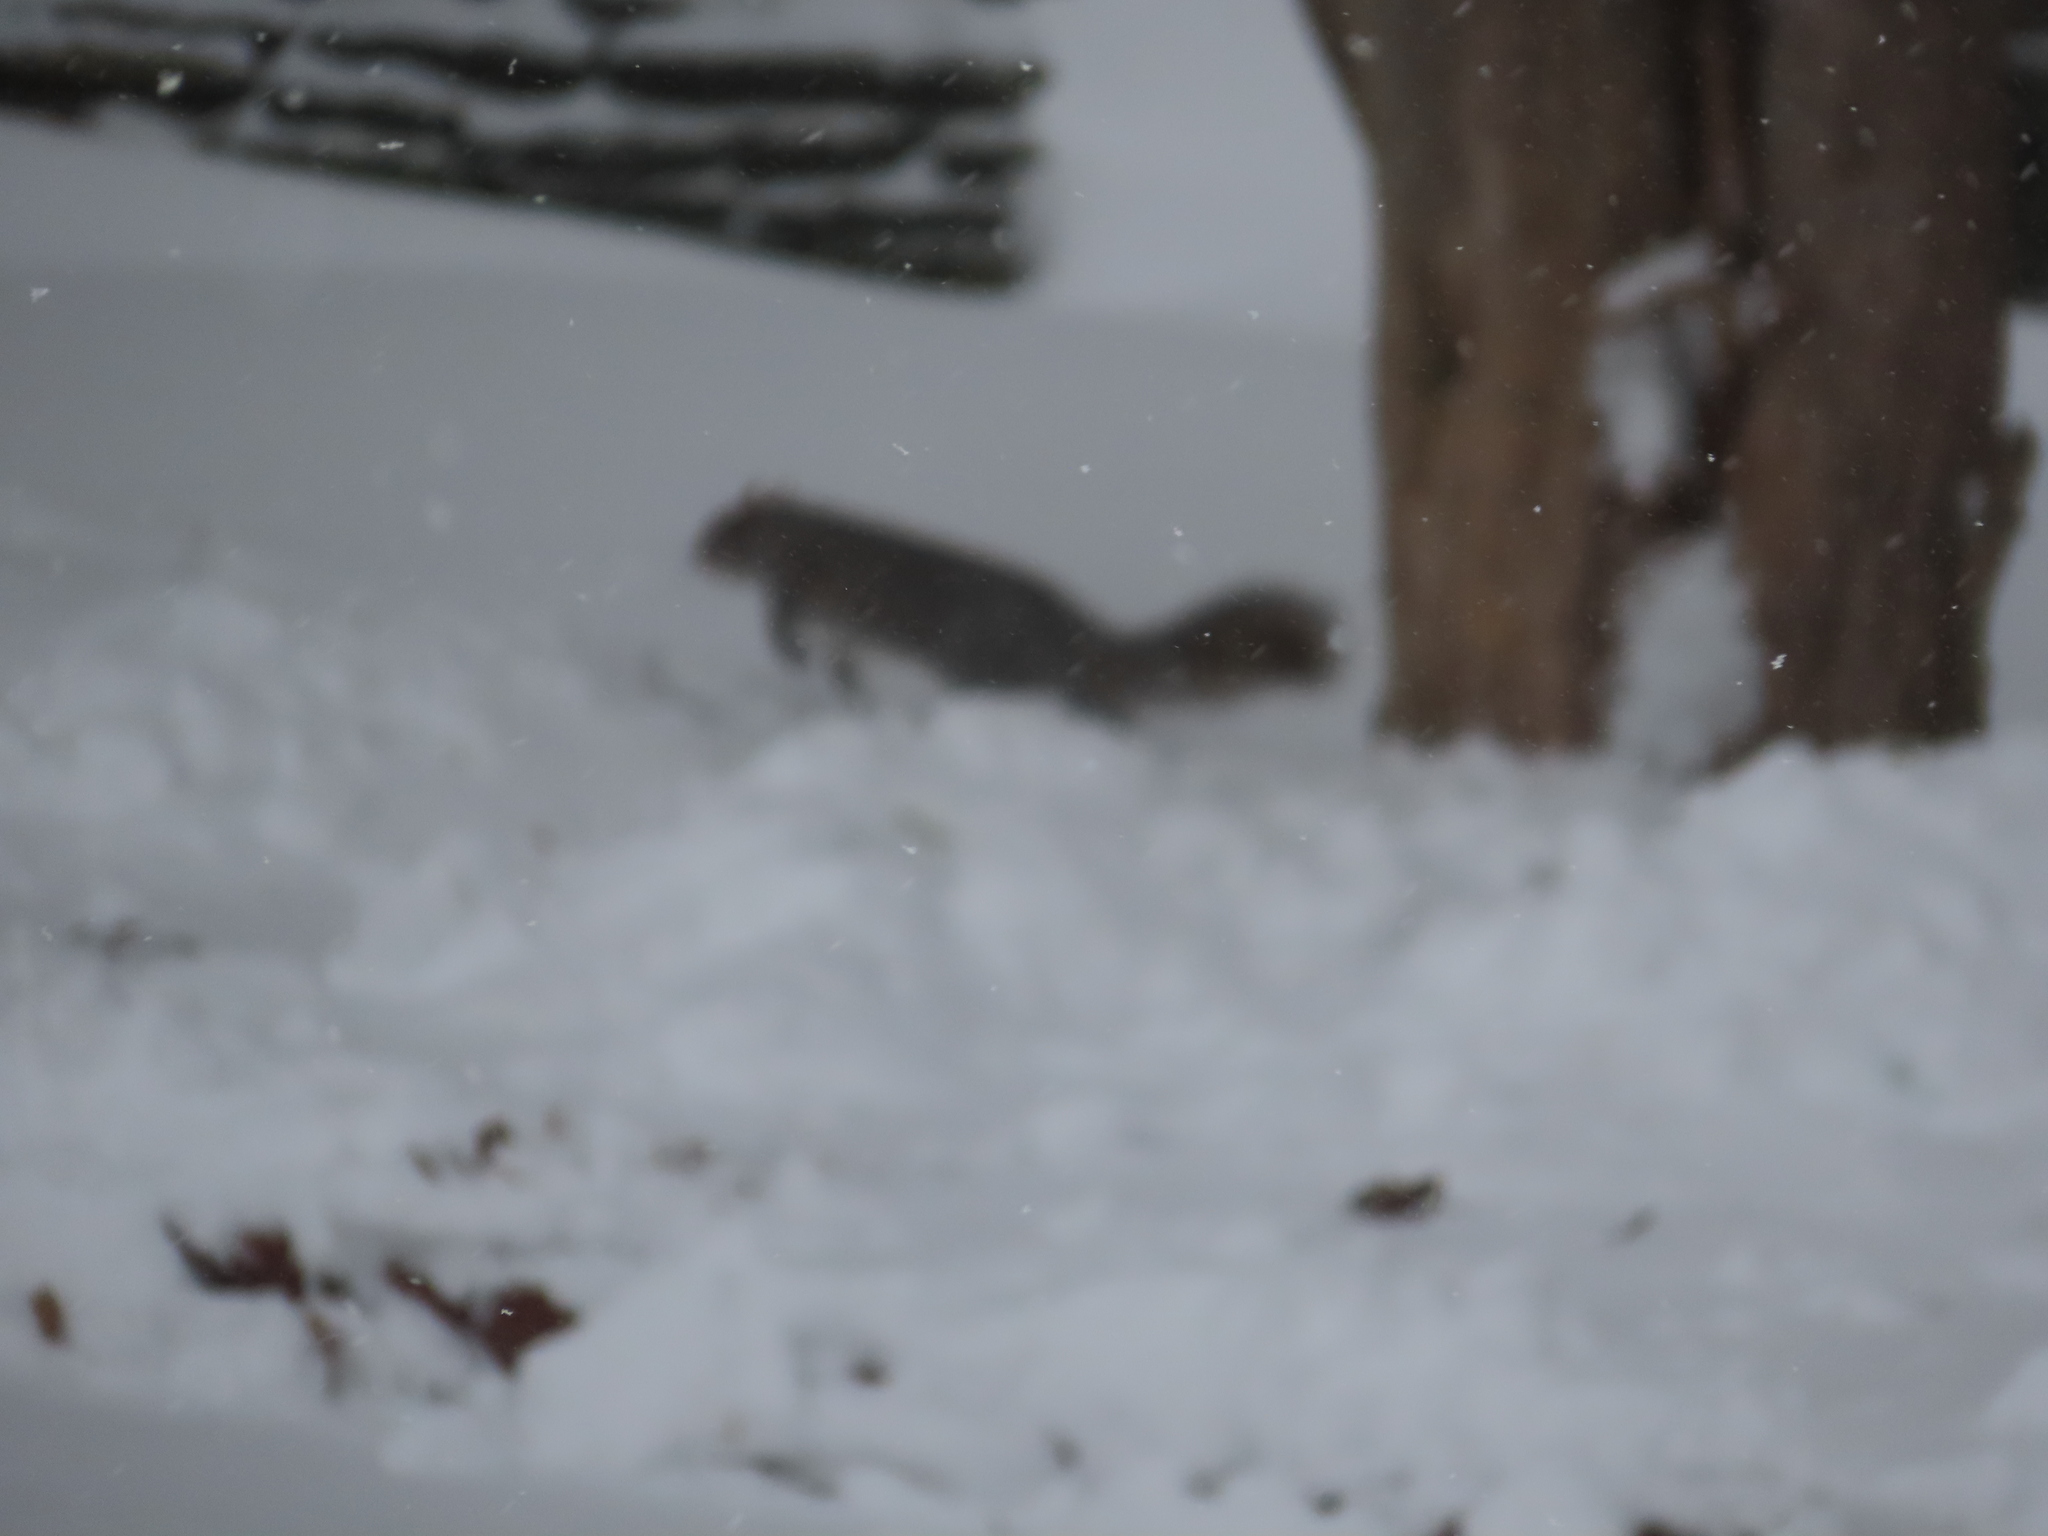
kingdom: Animalia
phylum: Chordata
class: Mammalia
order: Rodentia
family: Sciuridae
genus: Sciurus
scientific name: Sciurus carolinensis
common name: Eastern gray squirrel
